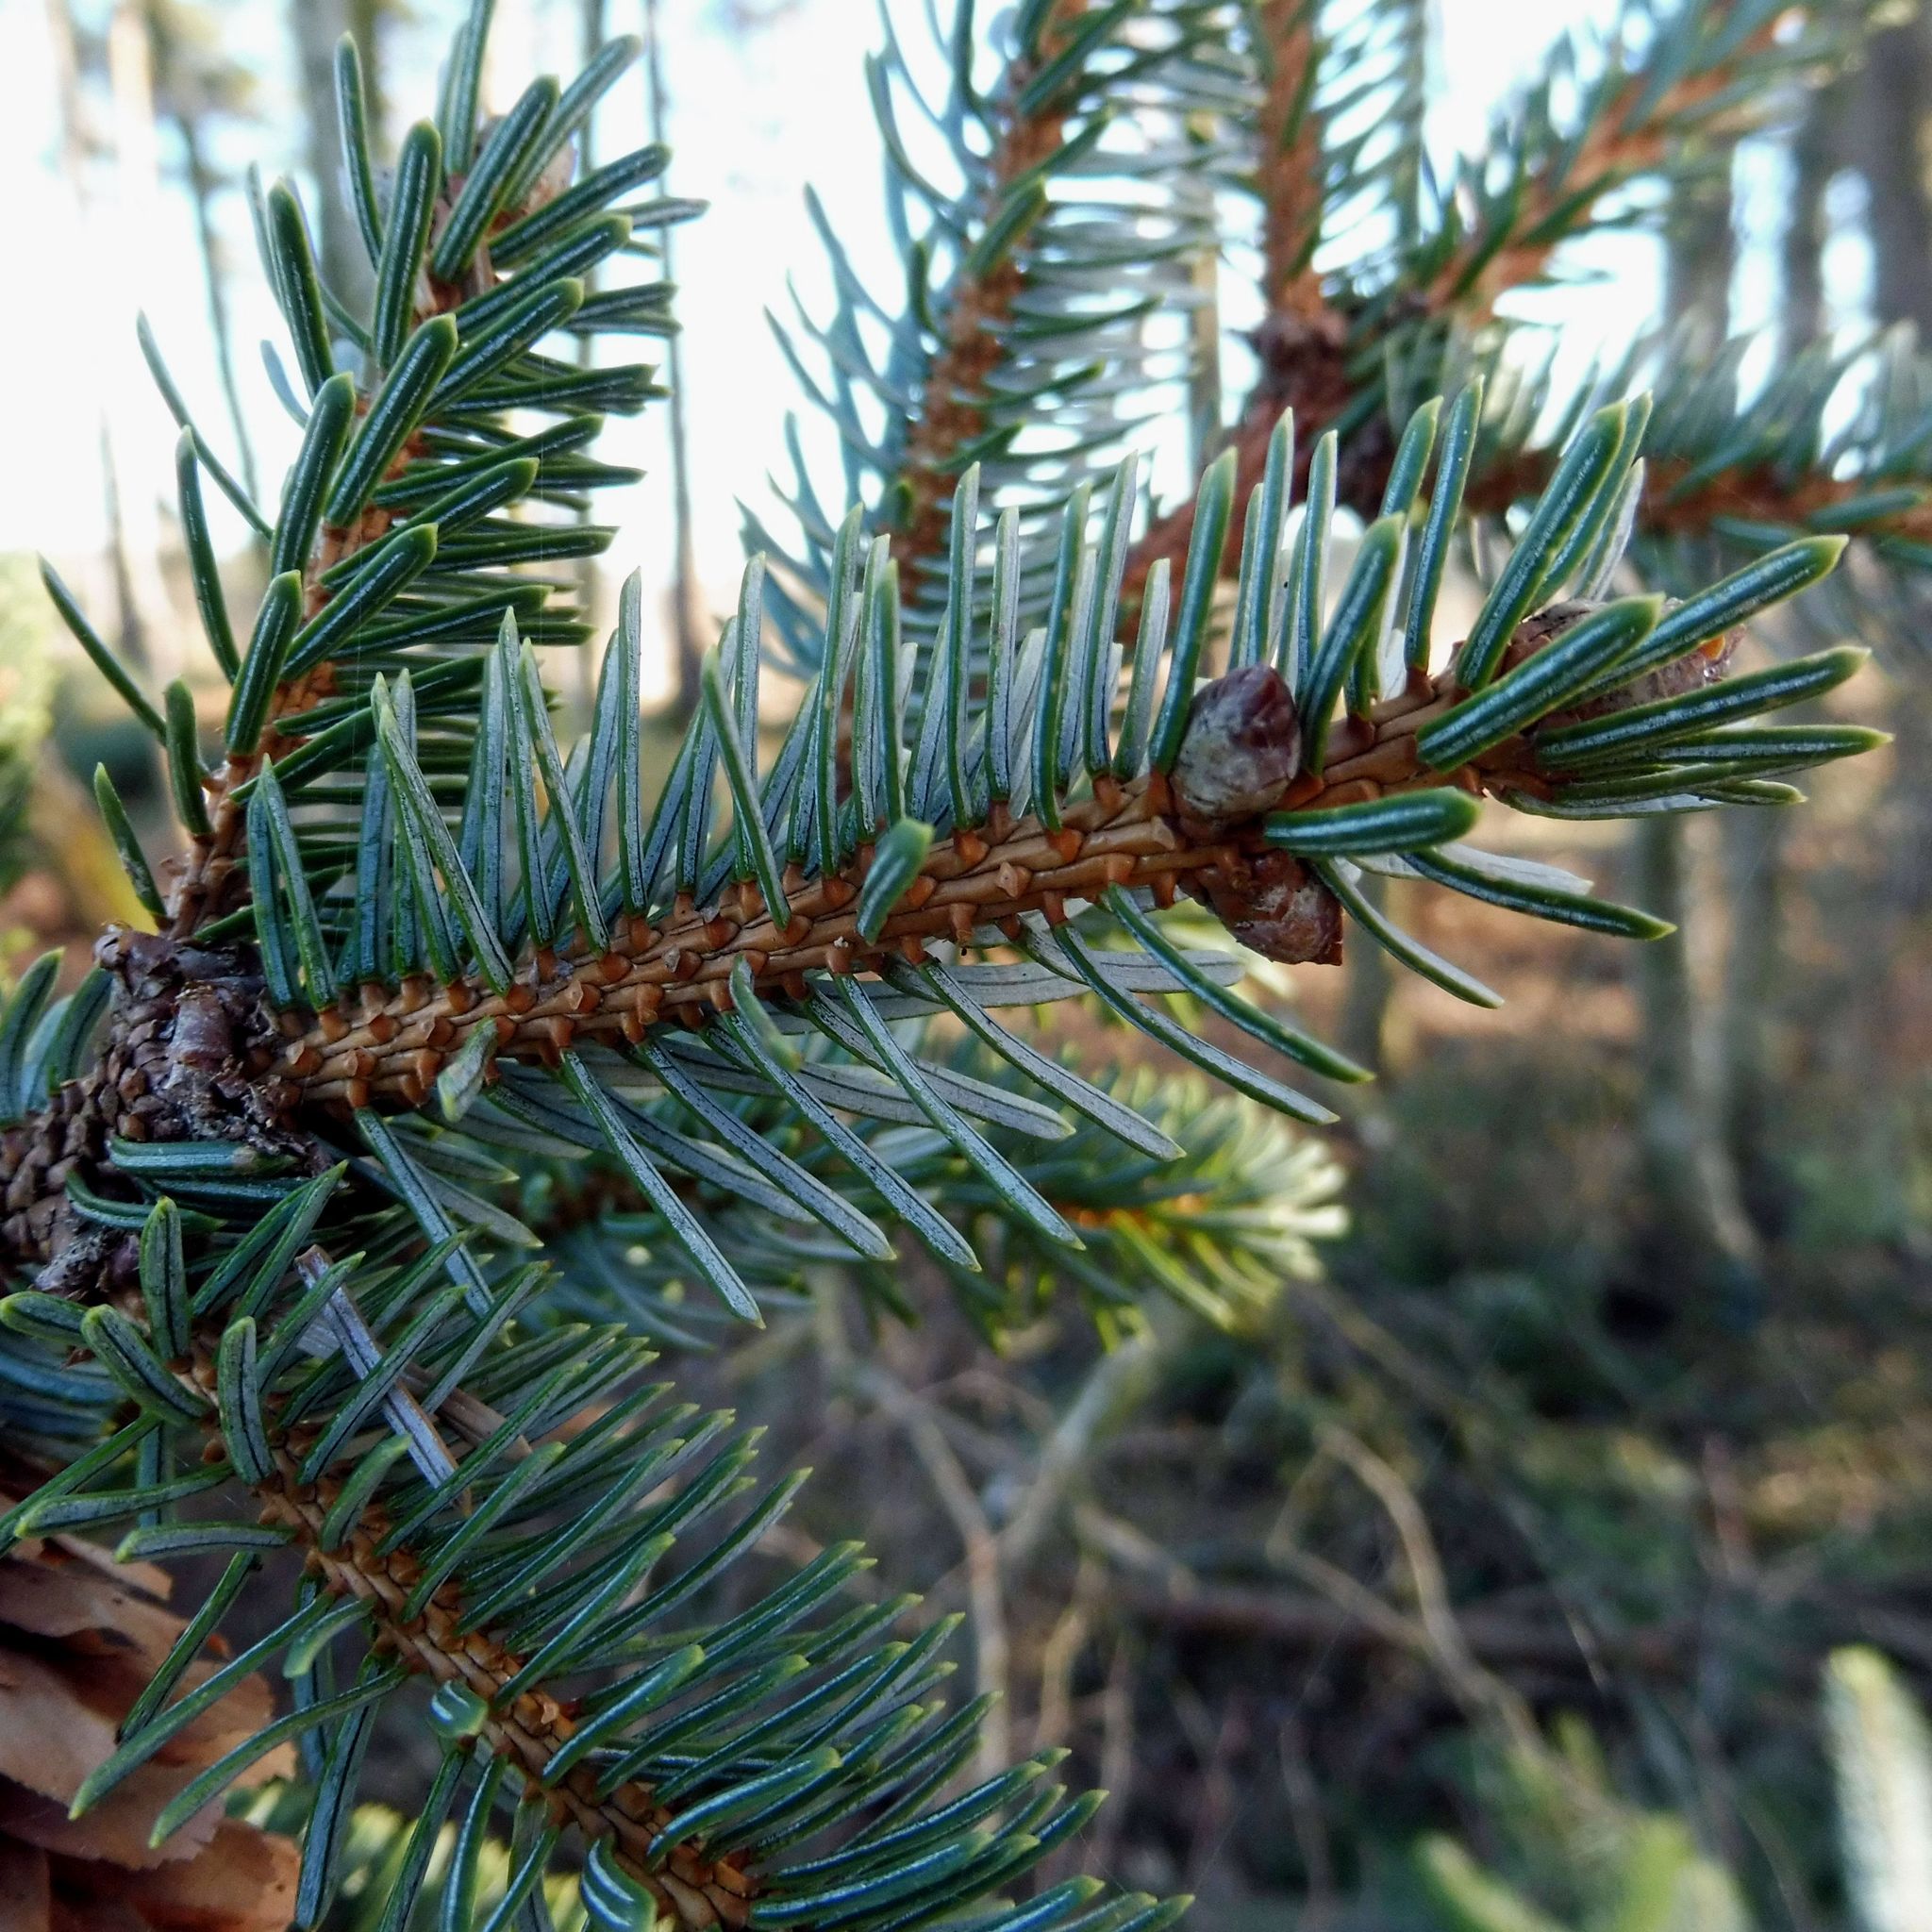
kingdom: Plantae
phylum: Tracheophyta
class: Pinopsida
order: Pinales
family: Pinaceae
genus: Picea
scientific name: Picea sitchensis
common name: Sitka spruce
